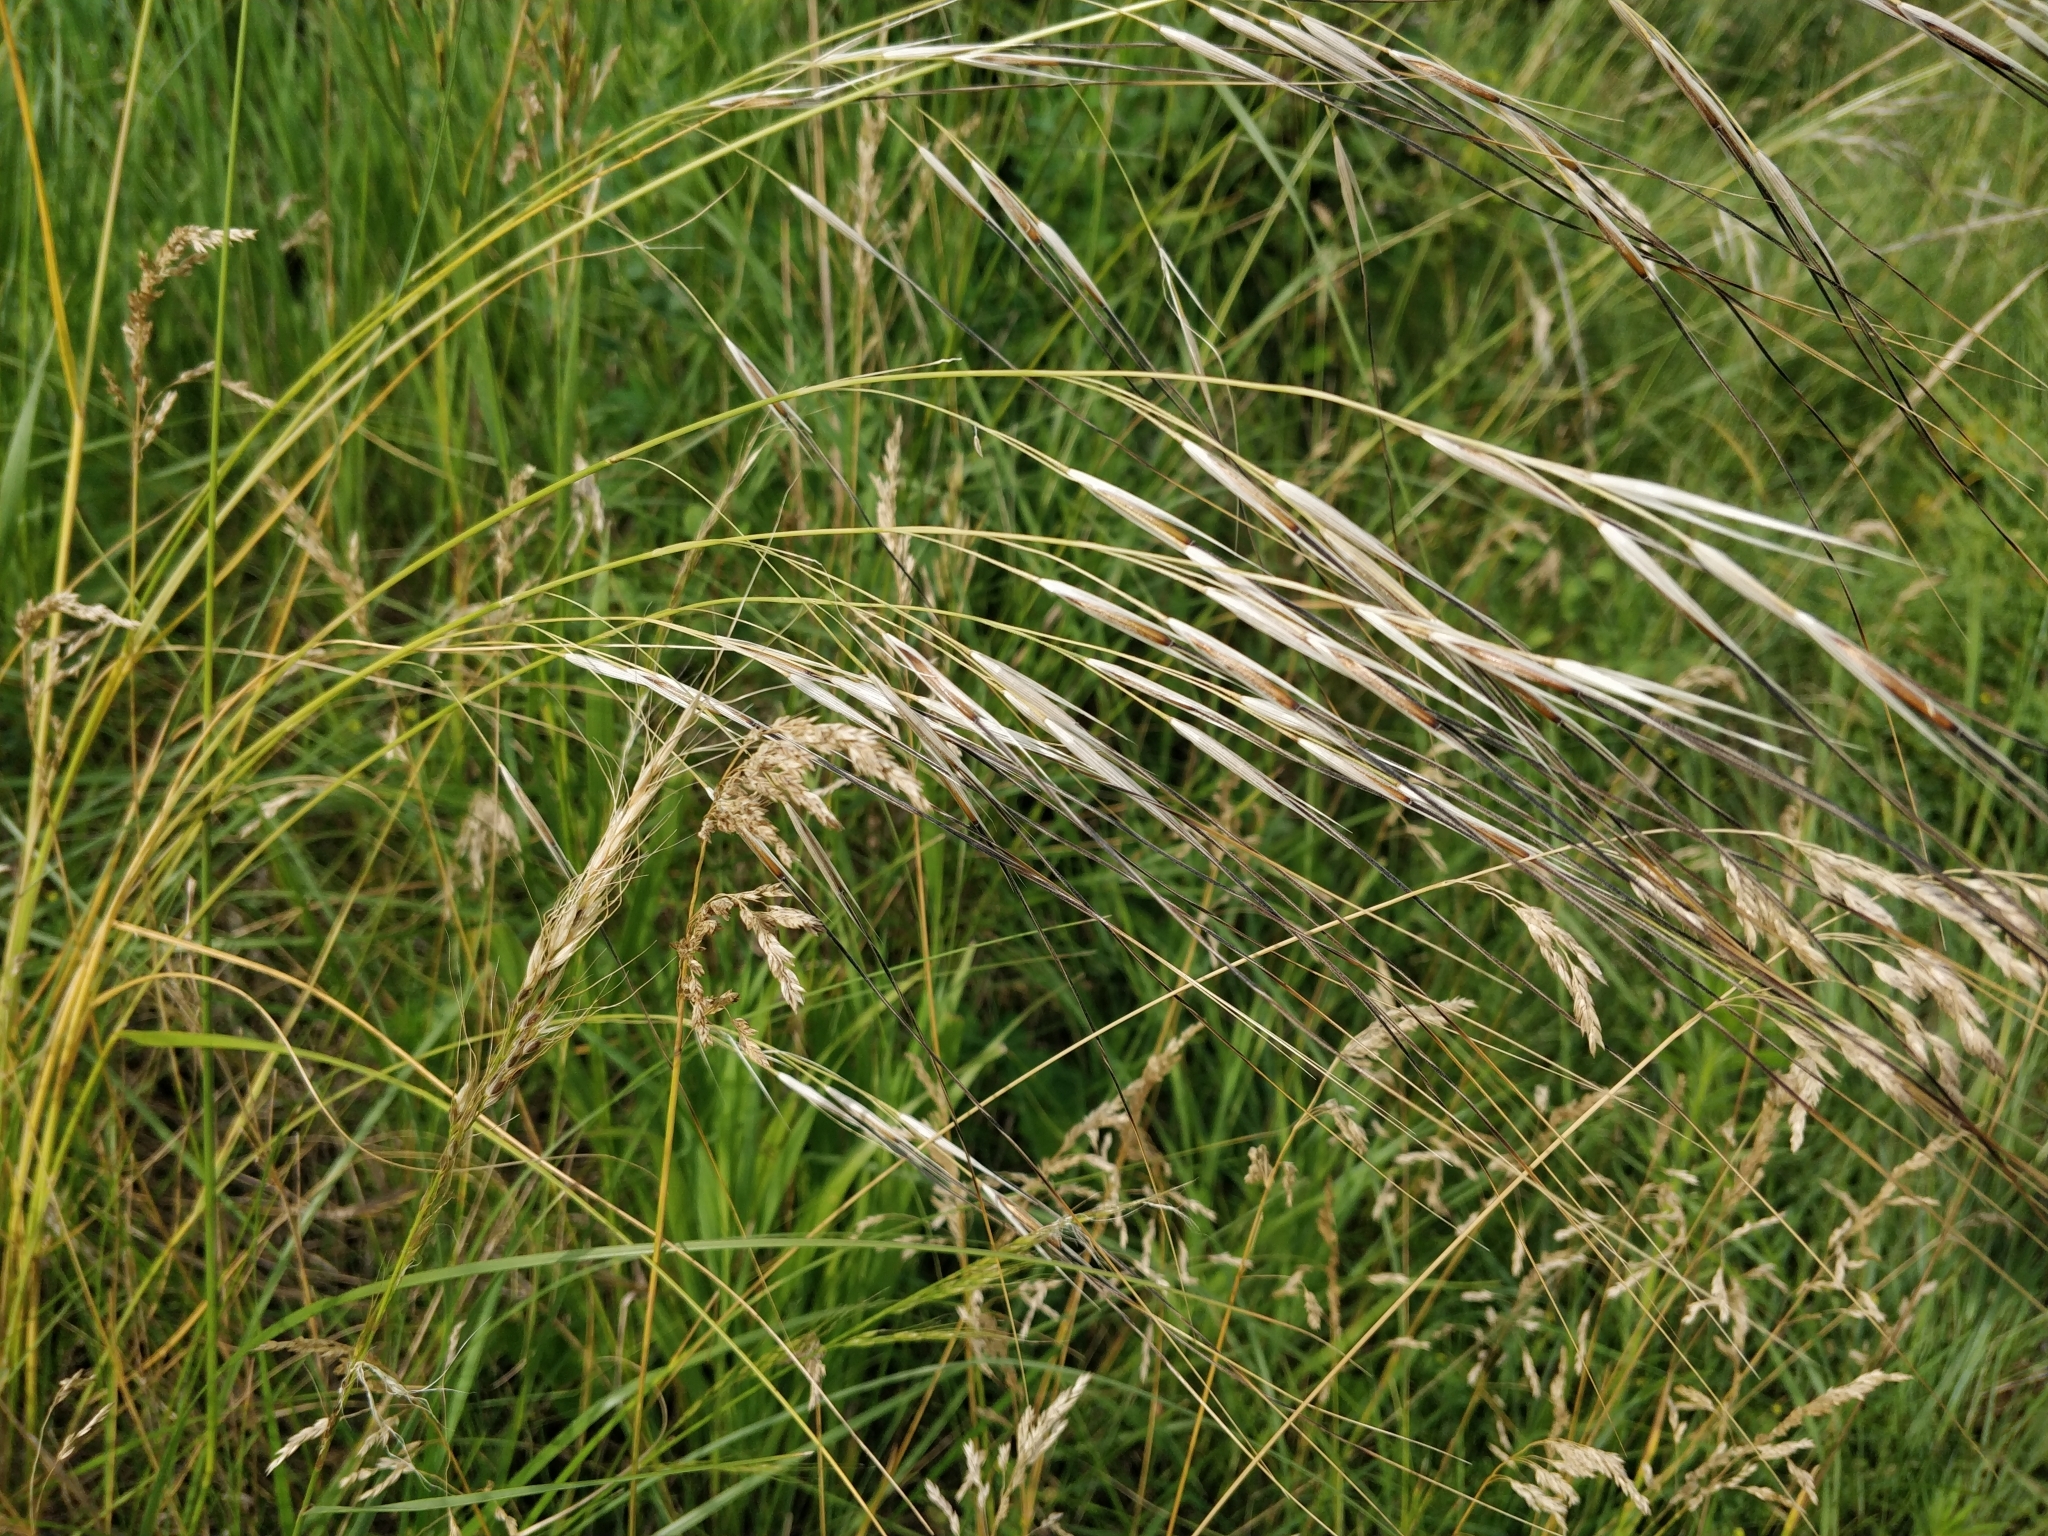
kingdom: Plantae
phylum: Tracheophyta
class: Liliopsida
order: Poales
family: Poaceae
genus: Hesperostipa
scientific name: Hesperostipa spartea
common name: Porcupine grass
